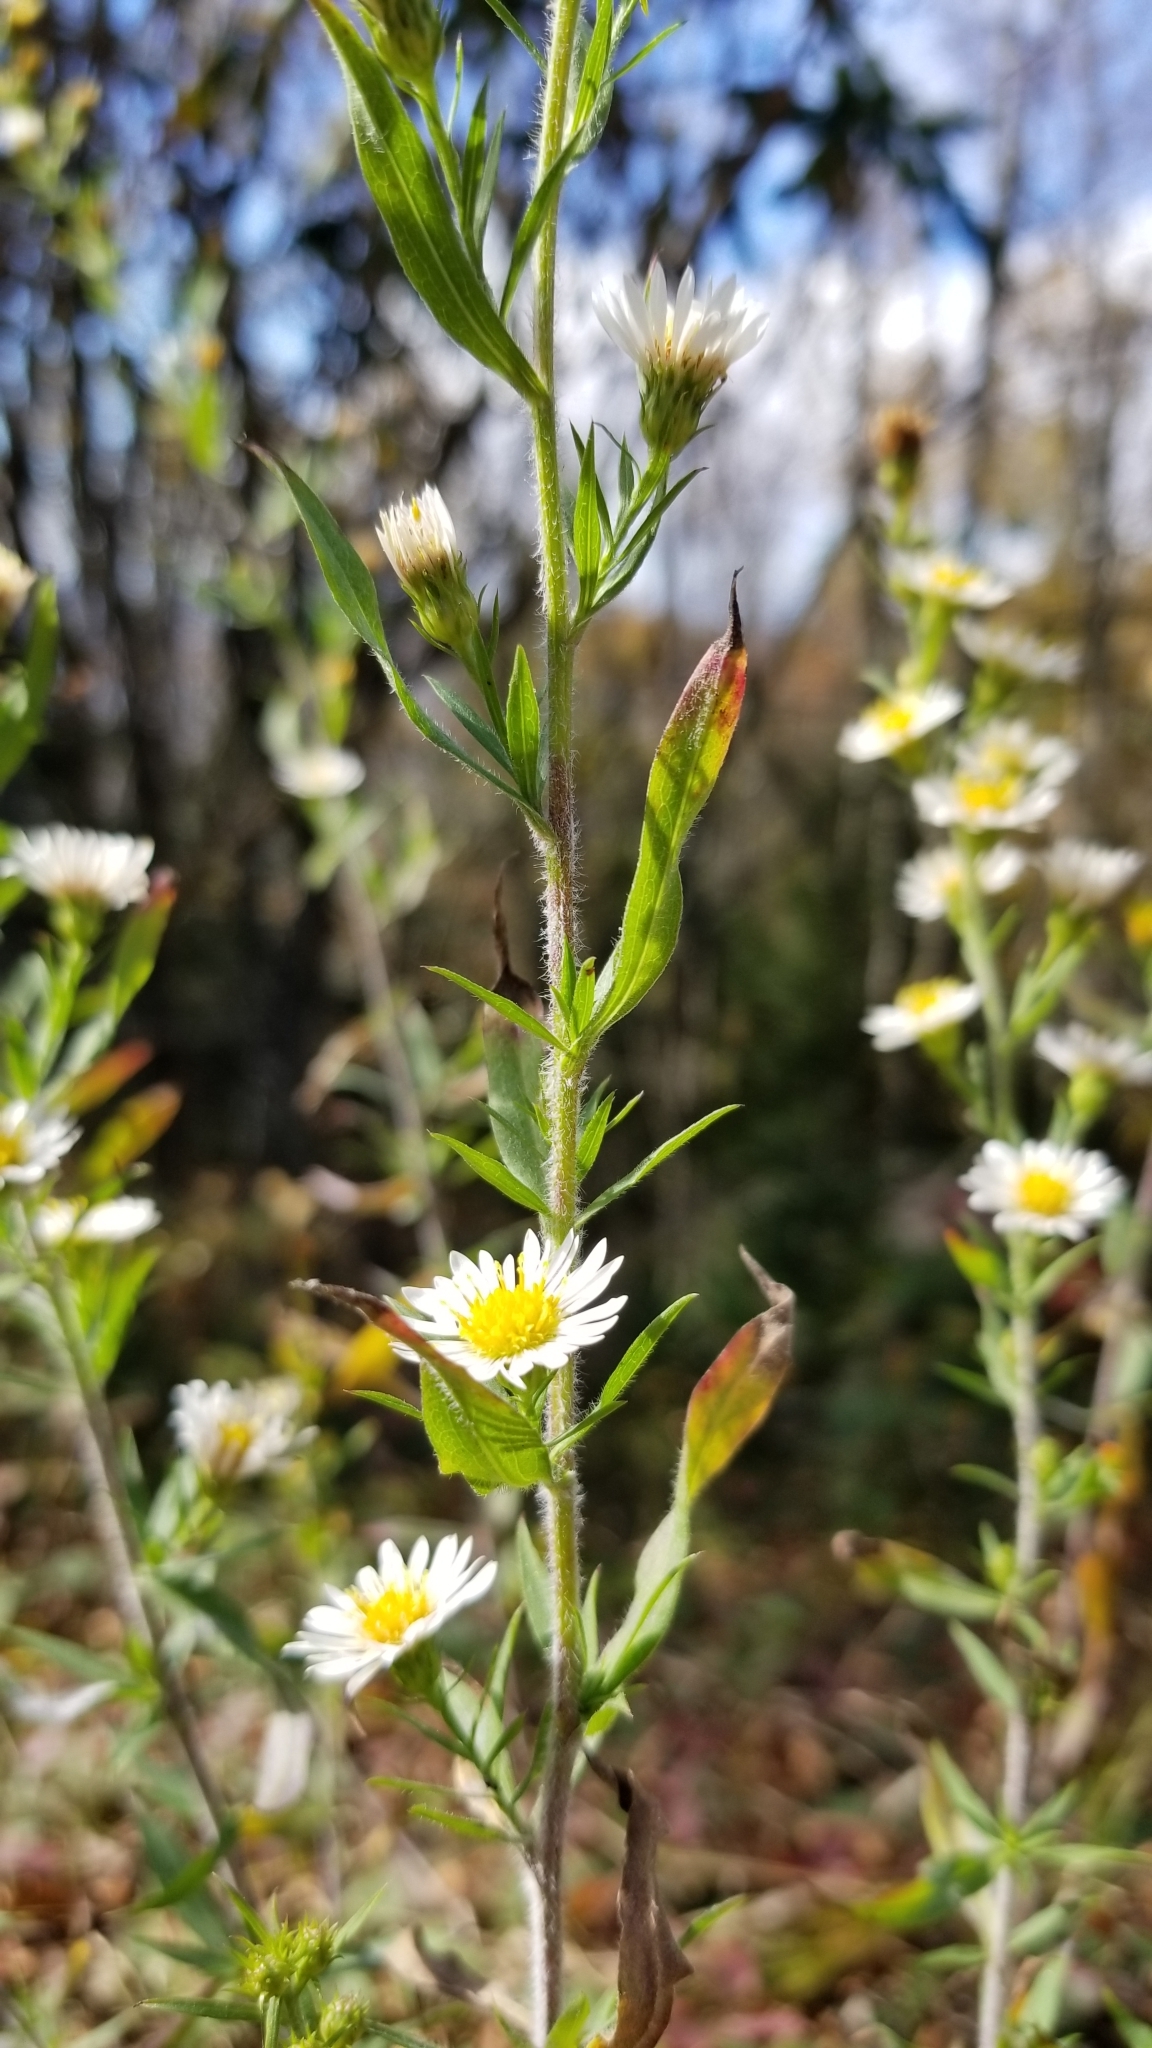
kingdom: Plantae
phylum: Tracheophyta
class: Magnoliopsida
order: Asterales
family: Asteraceae
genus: Symphyotrichum
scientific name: Symphyotrichum pilosum
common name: Awl aster
